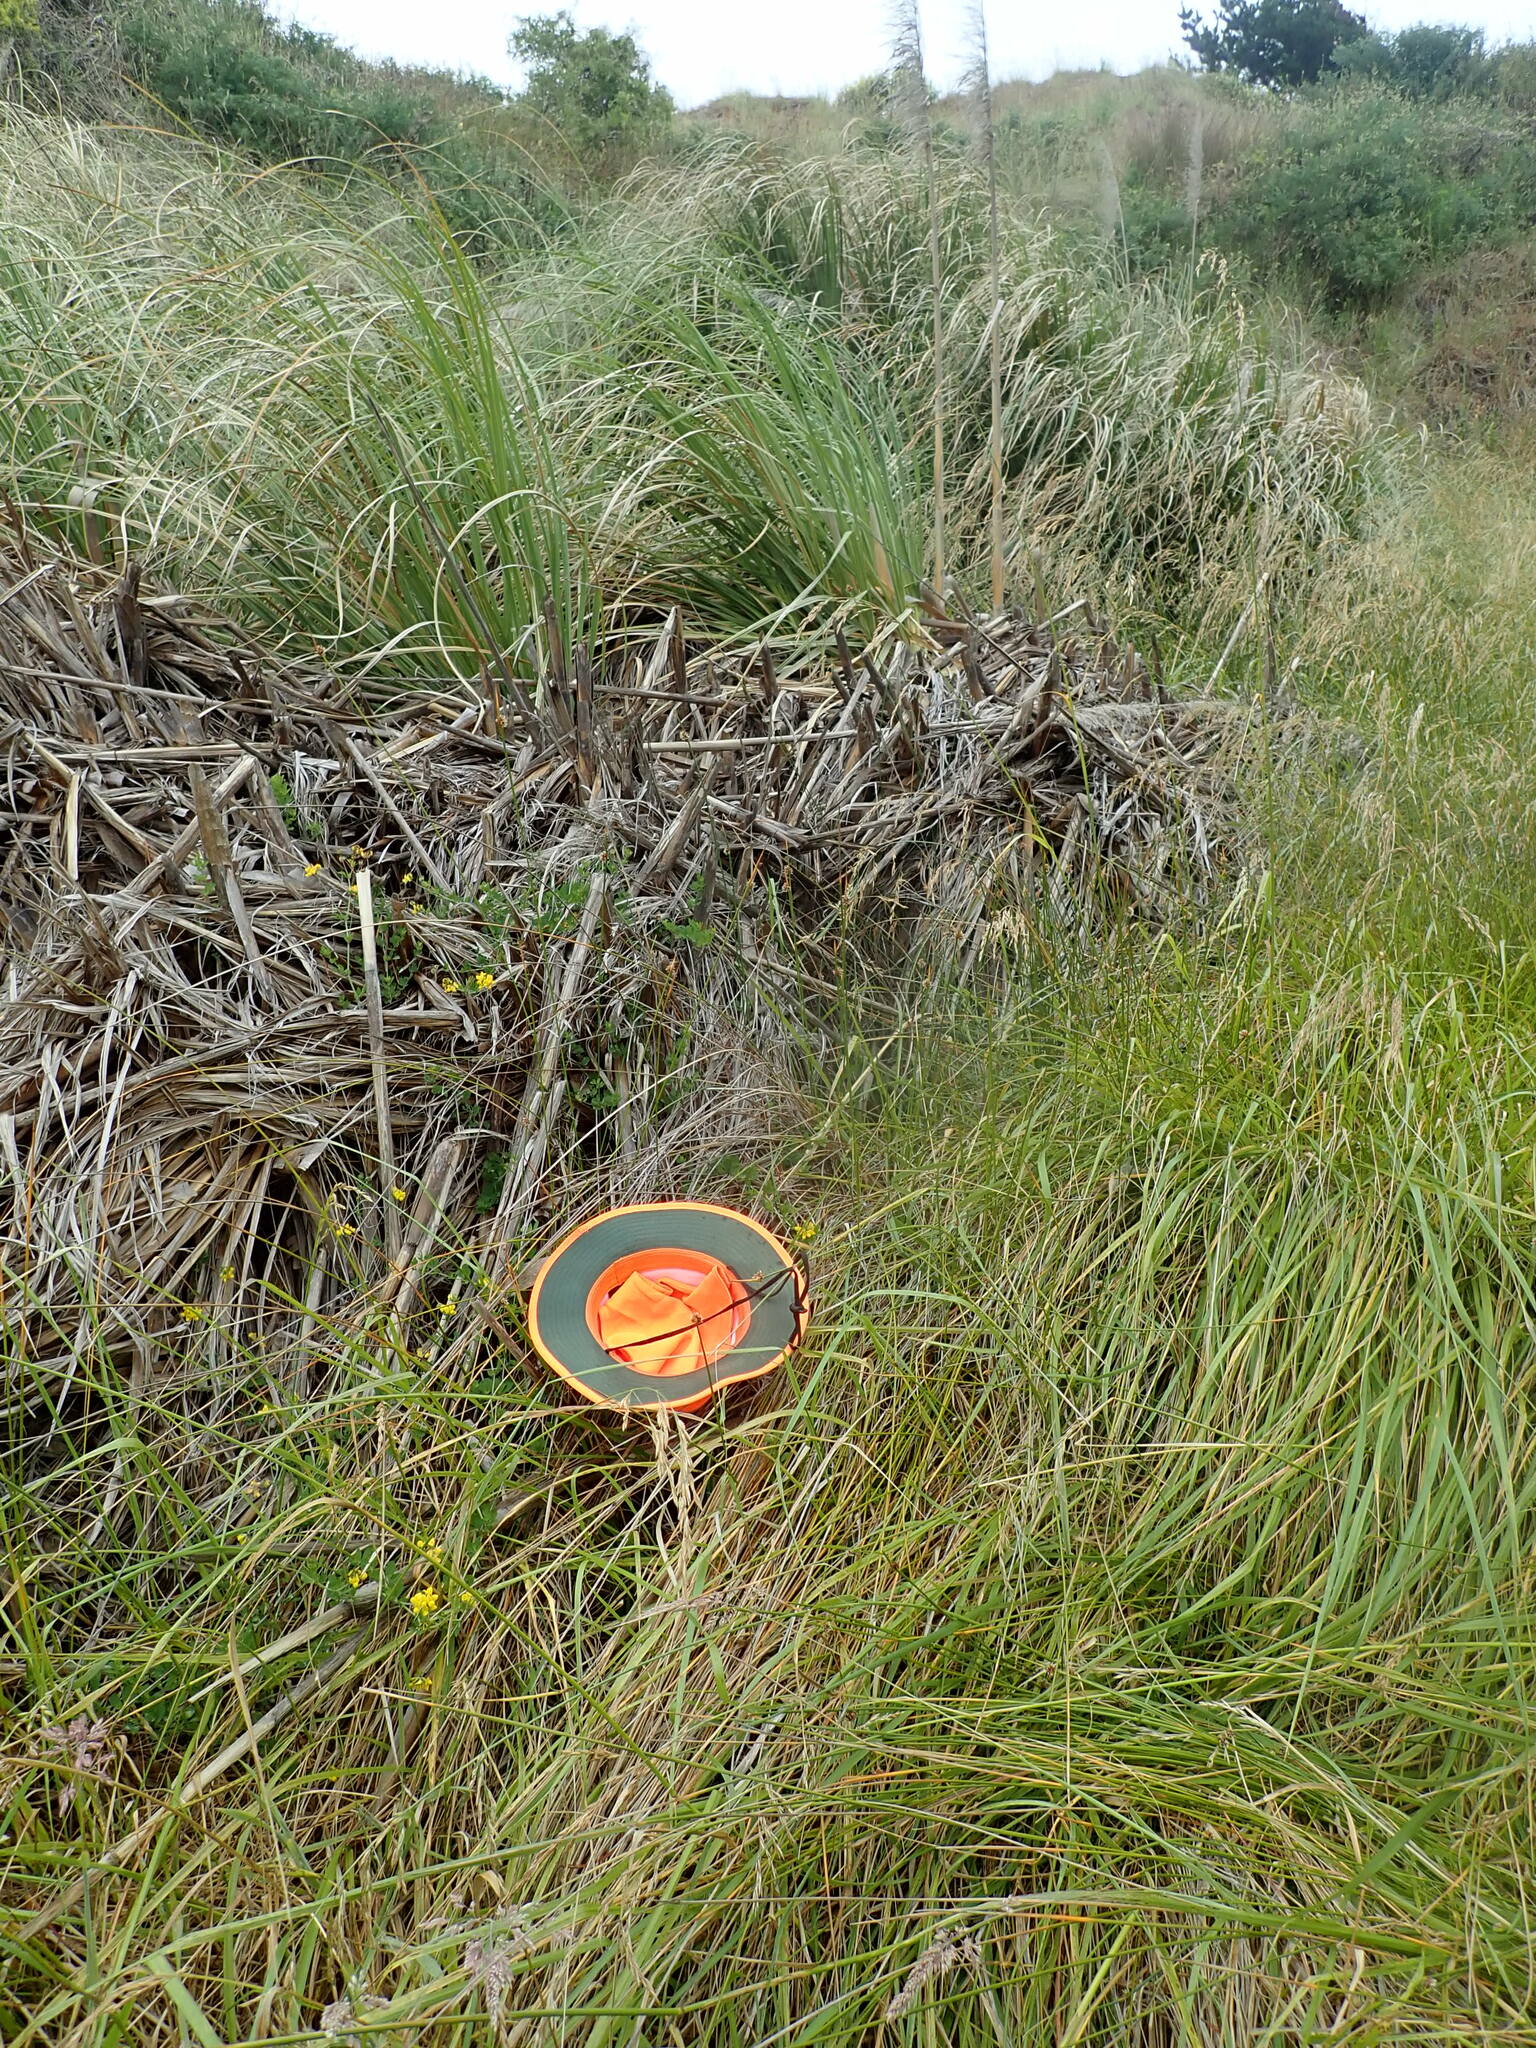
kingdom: Plantae
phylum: Tracheophyta
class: Magnoliopsida
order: Fabales
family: Fabaceae
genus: Lotus
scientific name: Lotus pedunculatus
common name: Greater birdsfoot-trefoil
